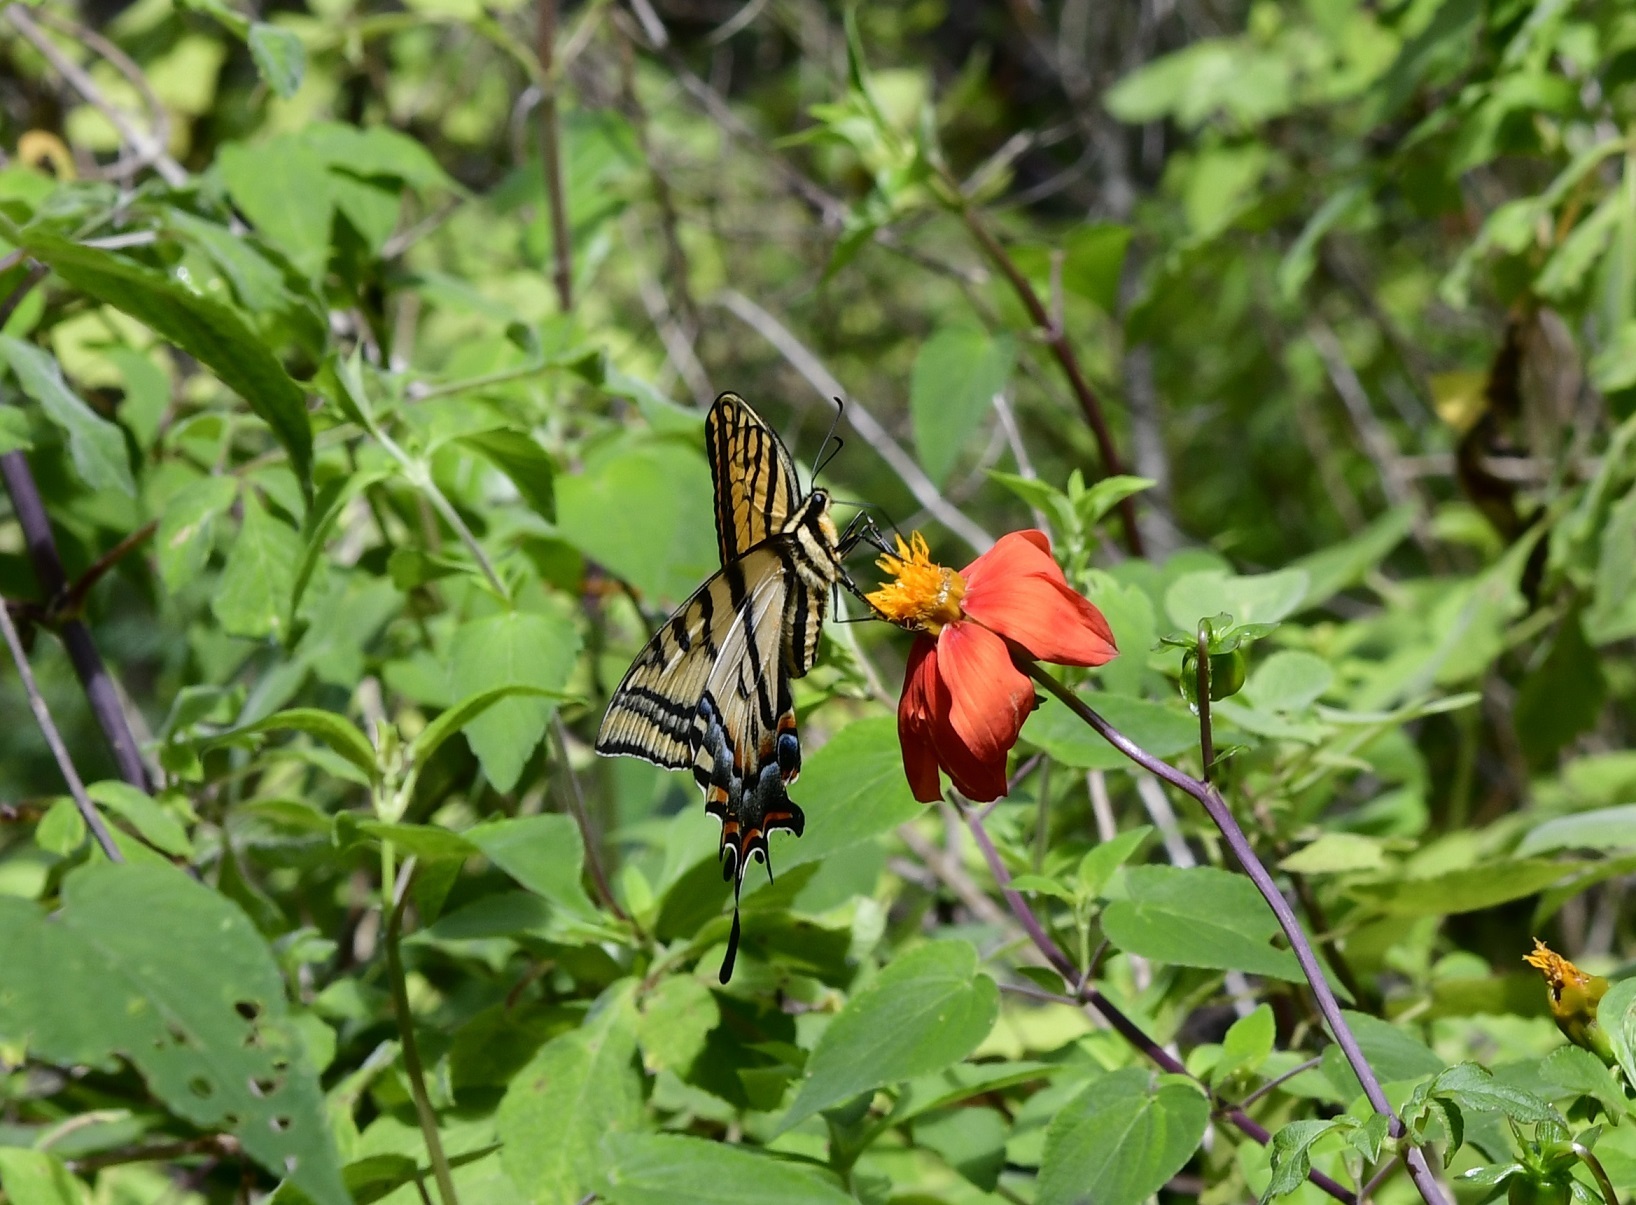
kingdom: Animalia
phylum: Arthropoda
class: Insecta
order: Lepidoptera
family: Papilionidae
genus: Papilio
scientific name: Papilio multicaudata
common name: Two-tailed tiger swallowtail
